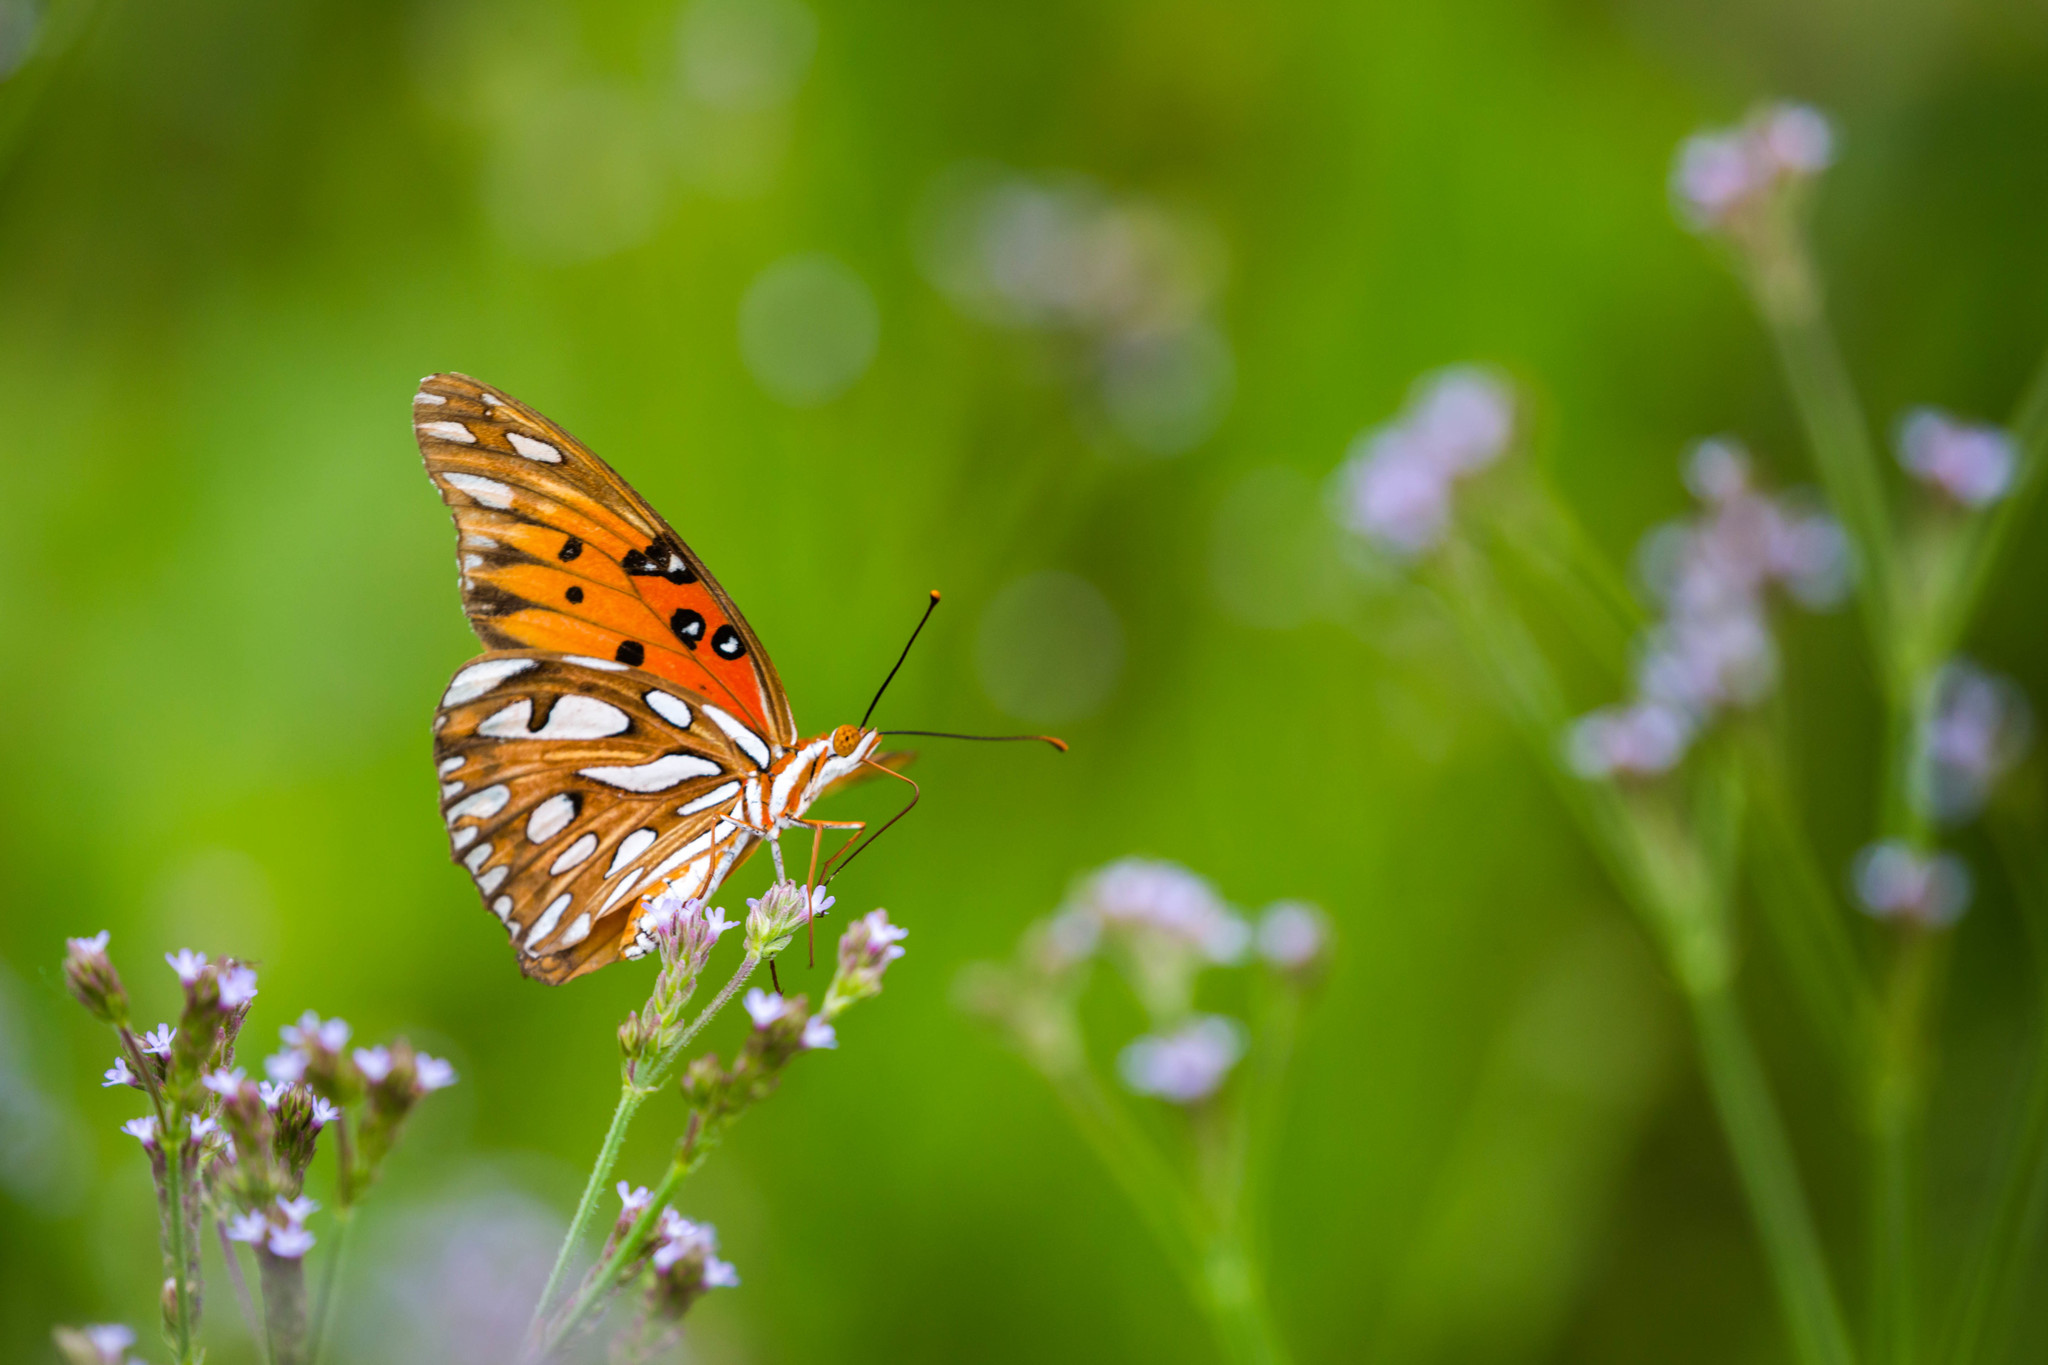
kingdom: Animalia
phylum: Arthropoda
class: Insecta
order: Lepidoptera
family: Nymphalidae
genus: Dione
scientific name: Dione vanillae
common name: Gulf fritillary
